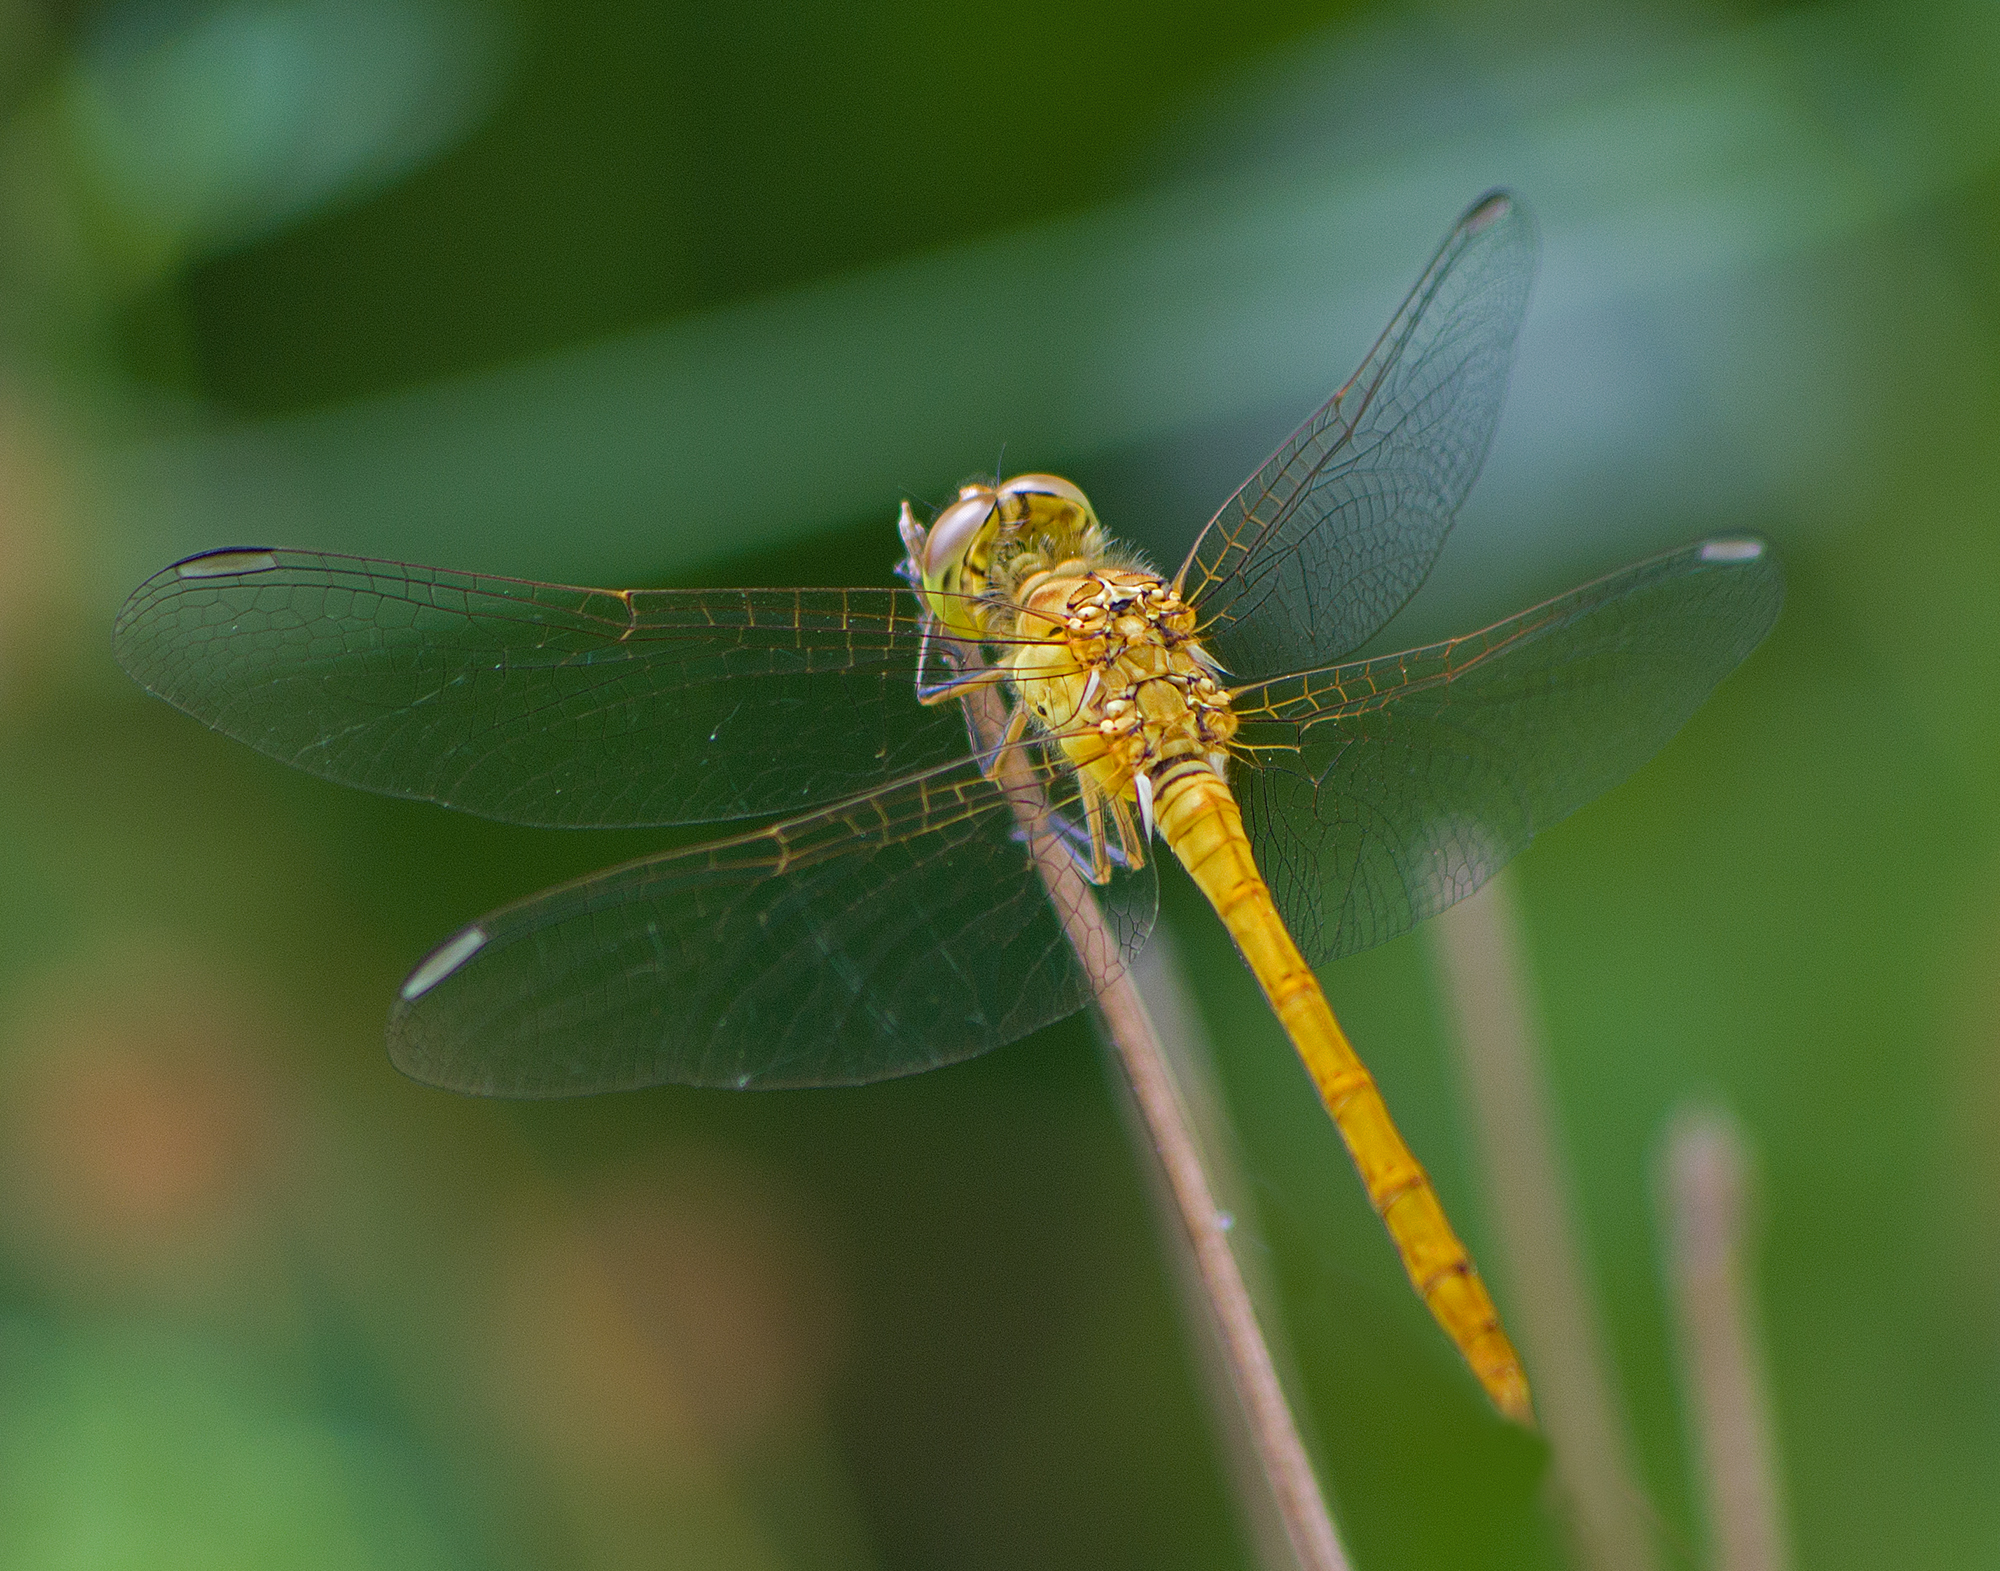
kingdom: Animalia
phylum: Arthropoda
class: Insecta
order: Odonata
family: Libellulidae
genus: Sympetrum
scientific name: Sympetrum meridionale
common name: Southern darter
